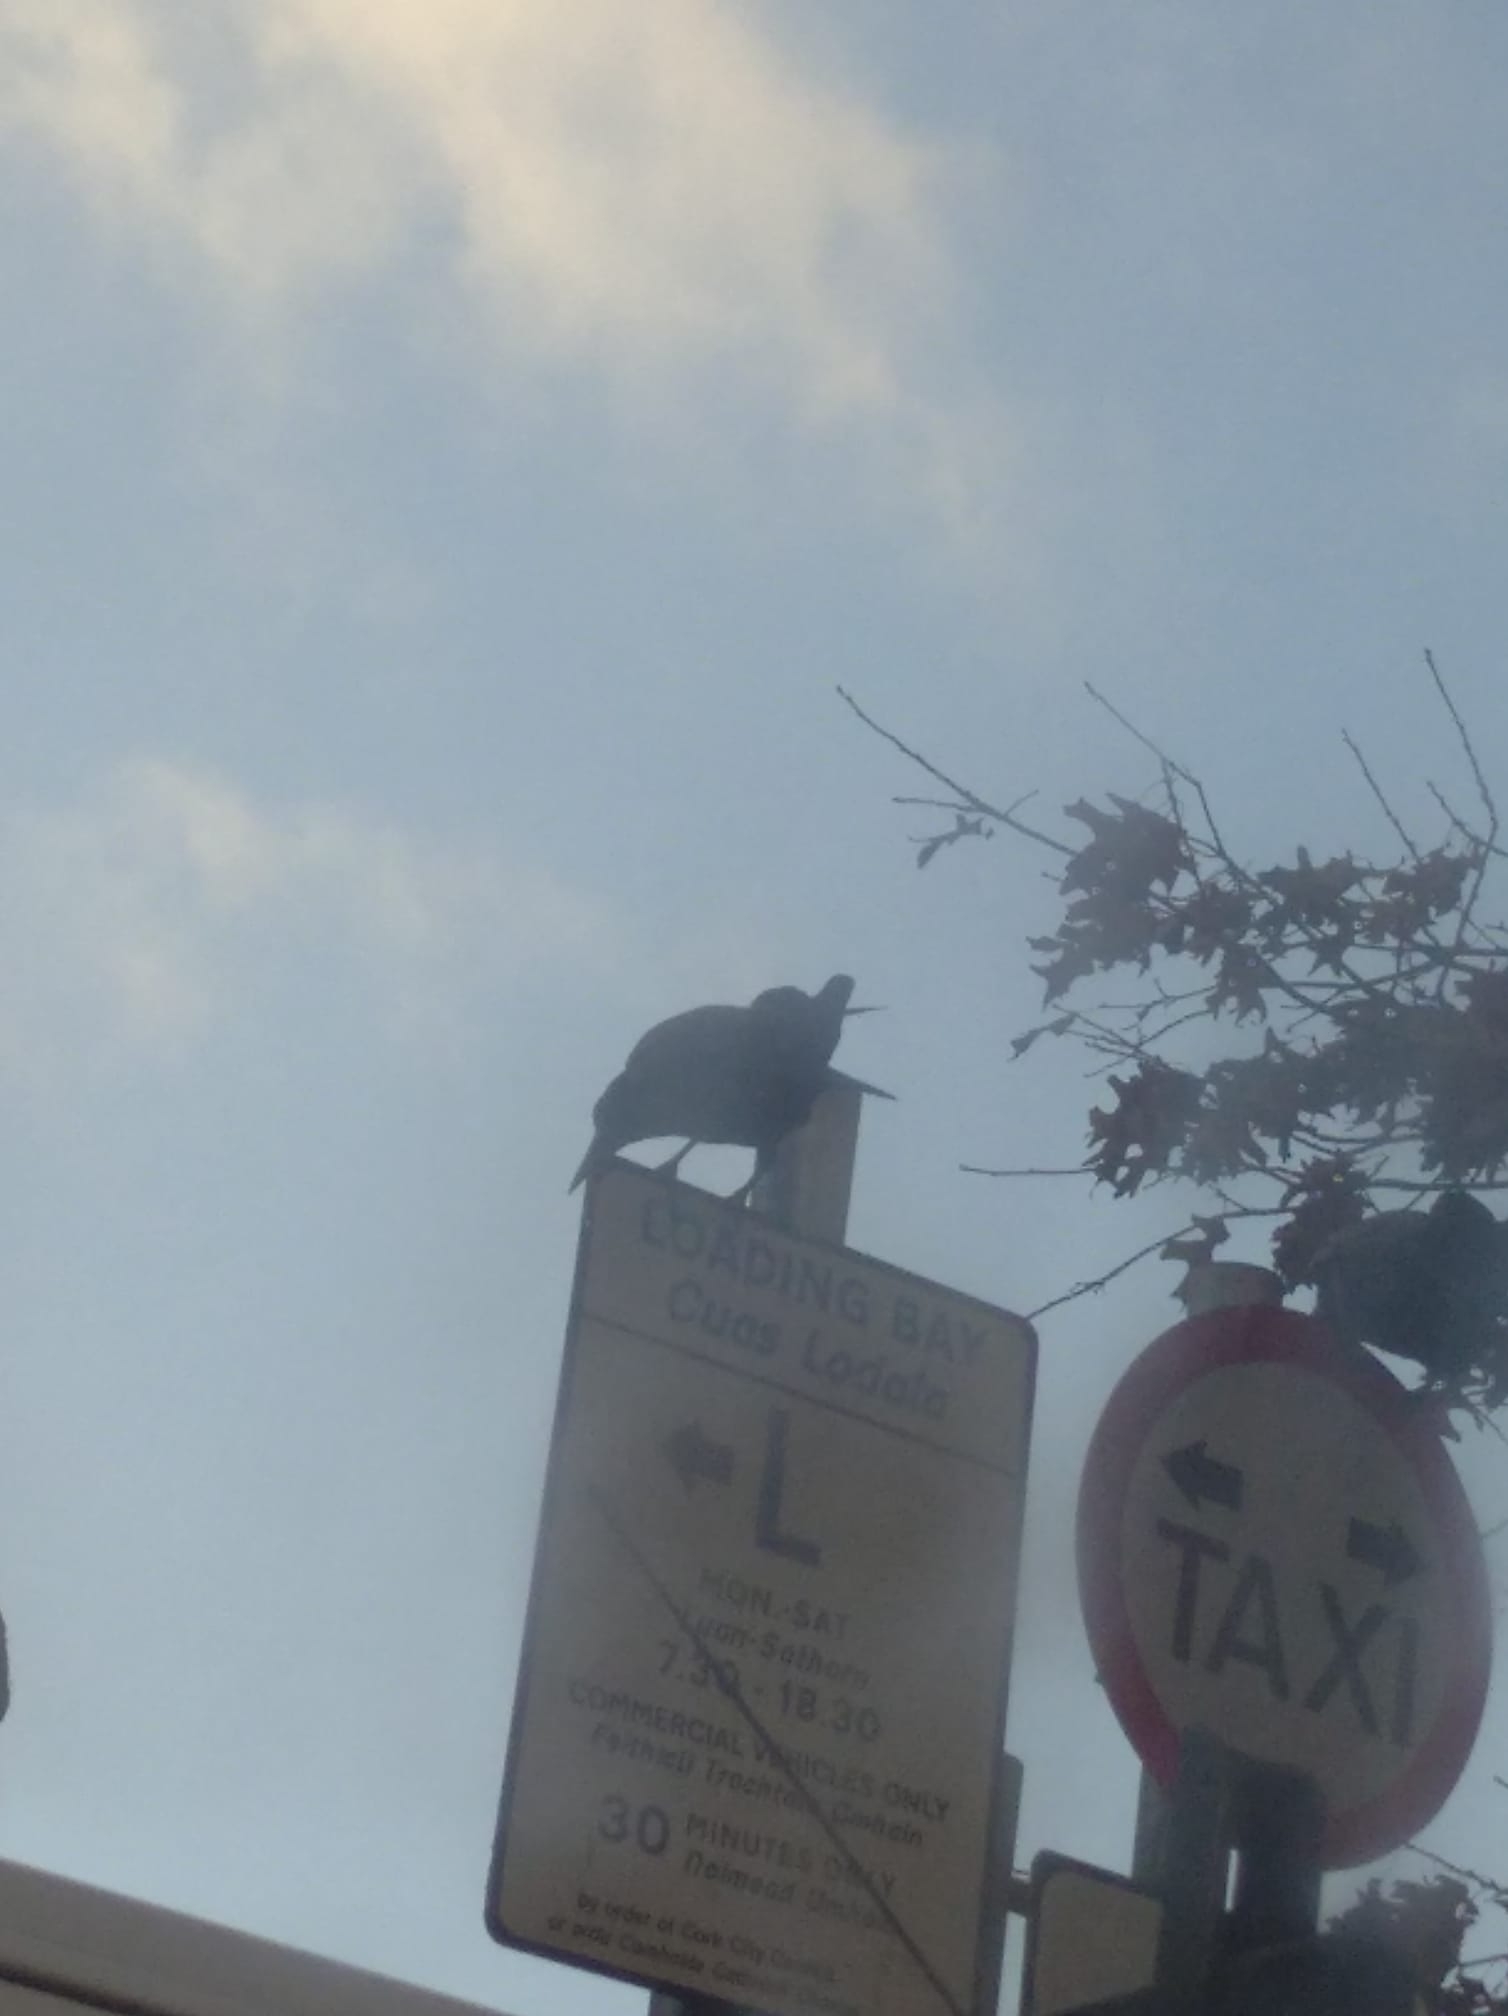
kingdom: Animalia
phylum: Chordata
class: Aves
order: Passeriformes
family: Corvidae
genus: Corvus
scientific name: Corvus frugilegus
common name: Rook
